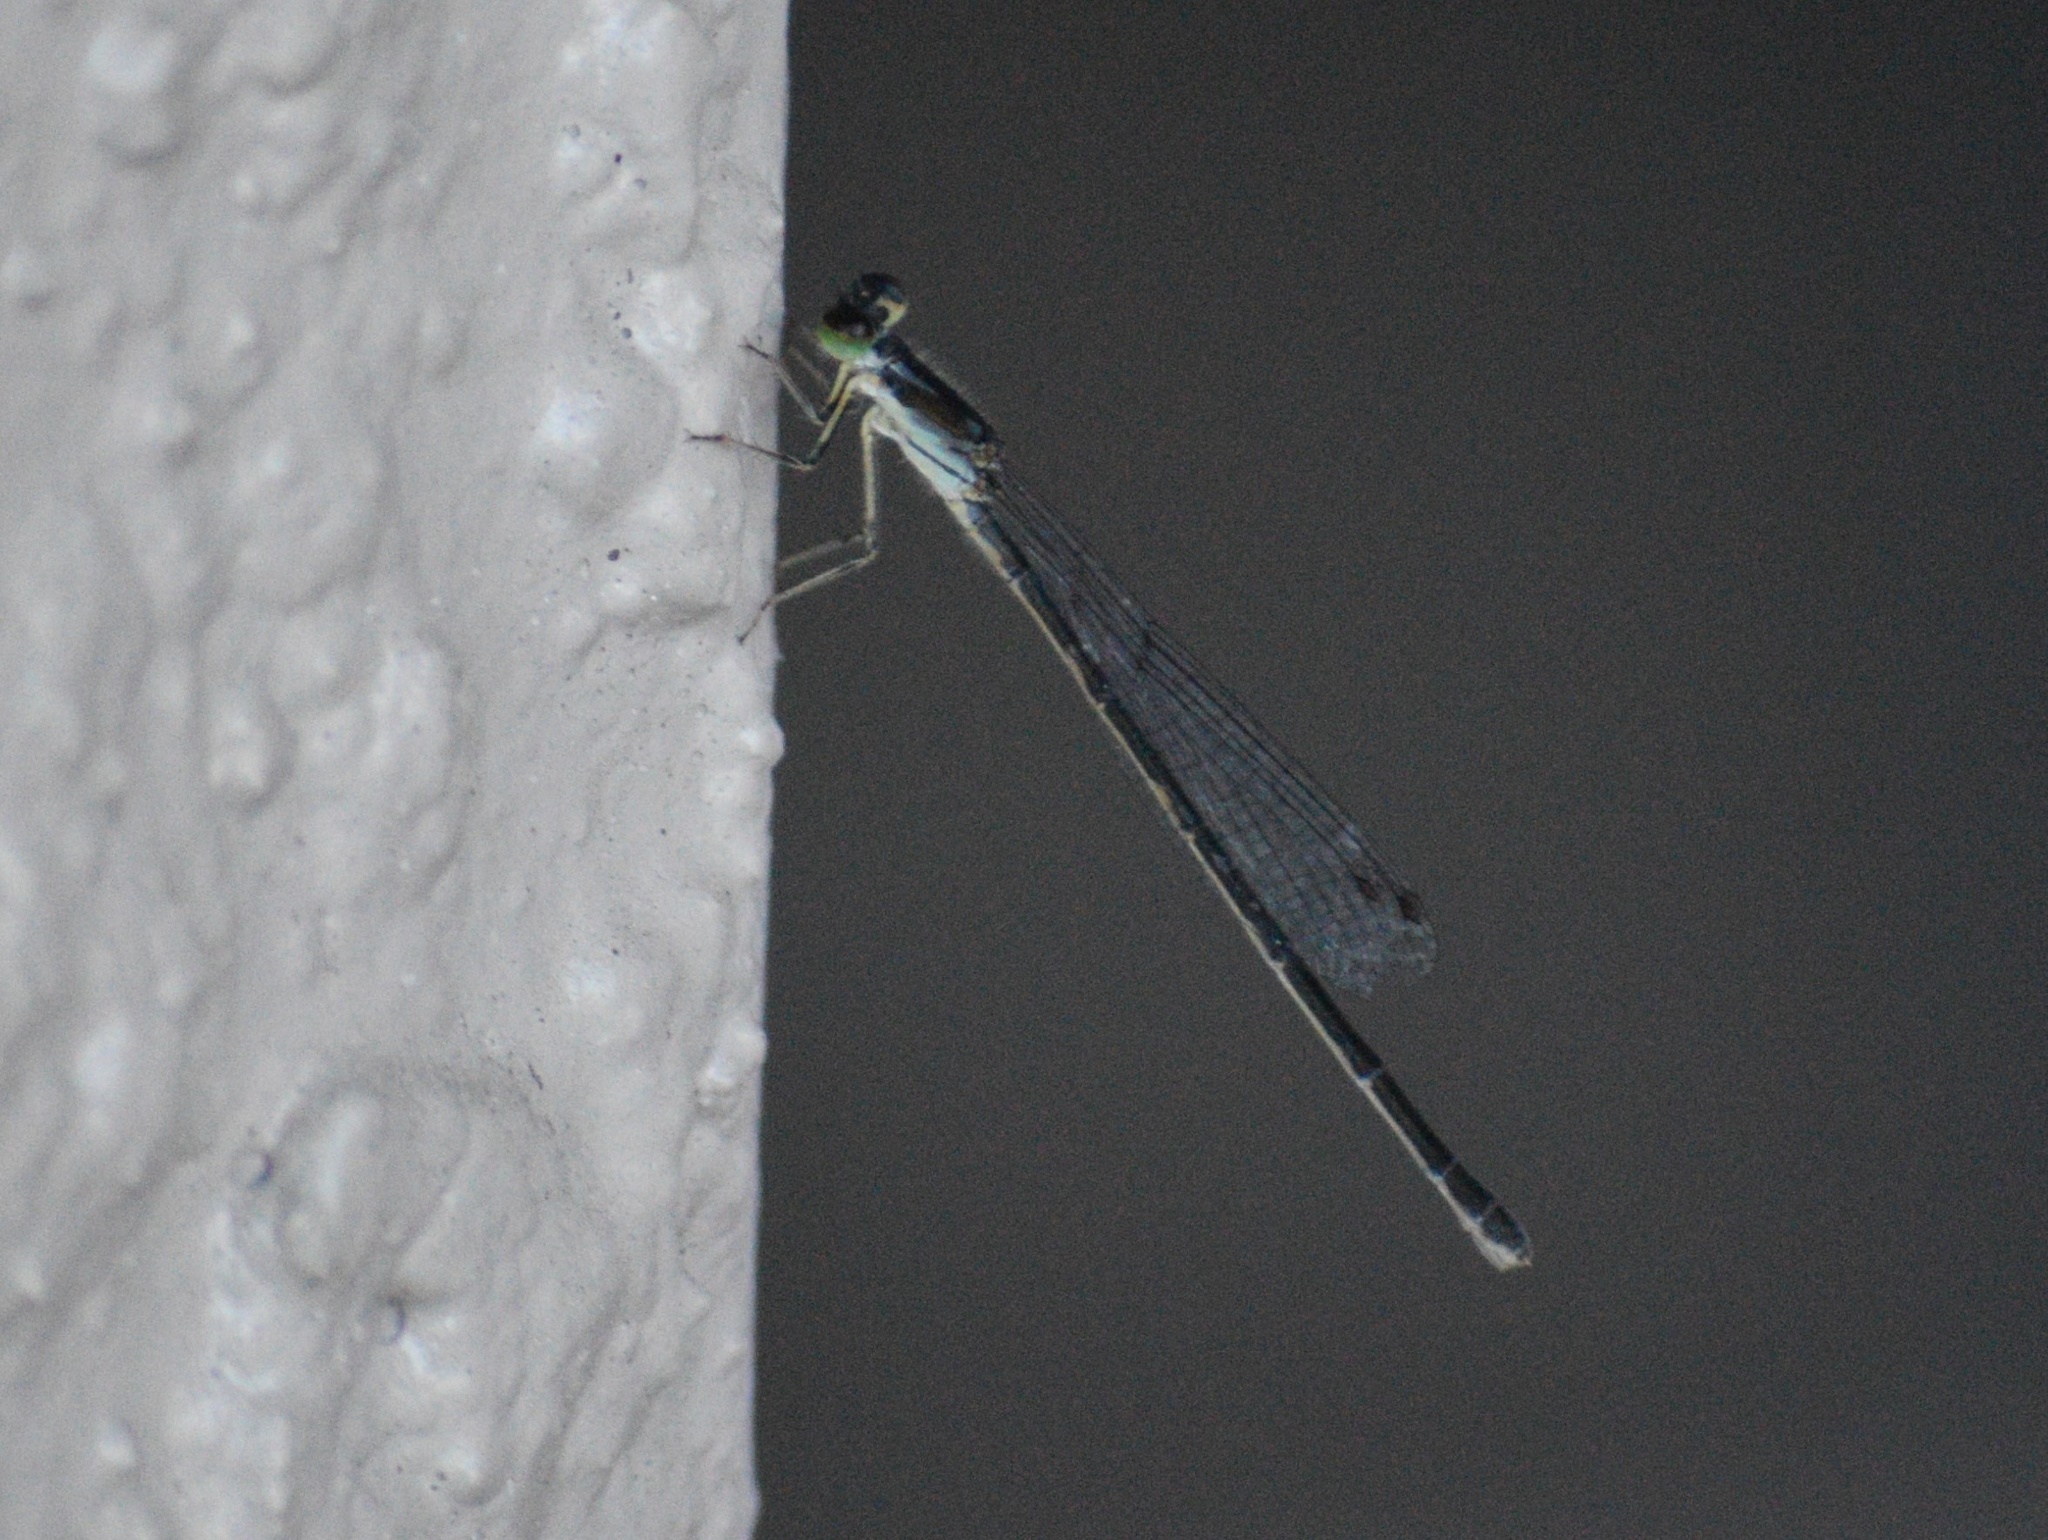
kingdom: Animalia
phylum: Arthropoda
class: Insecta
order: Odonata
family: Coenagrionidae
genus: Ischnura
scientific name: Ischnura posita
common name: Fragile forktail
